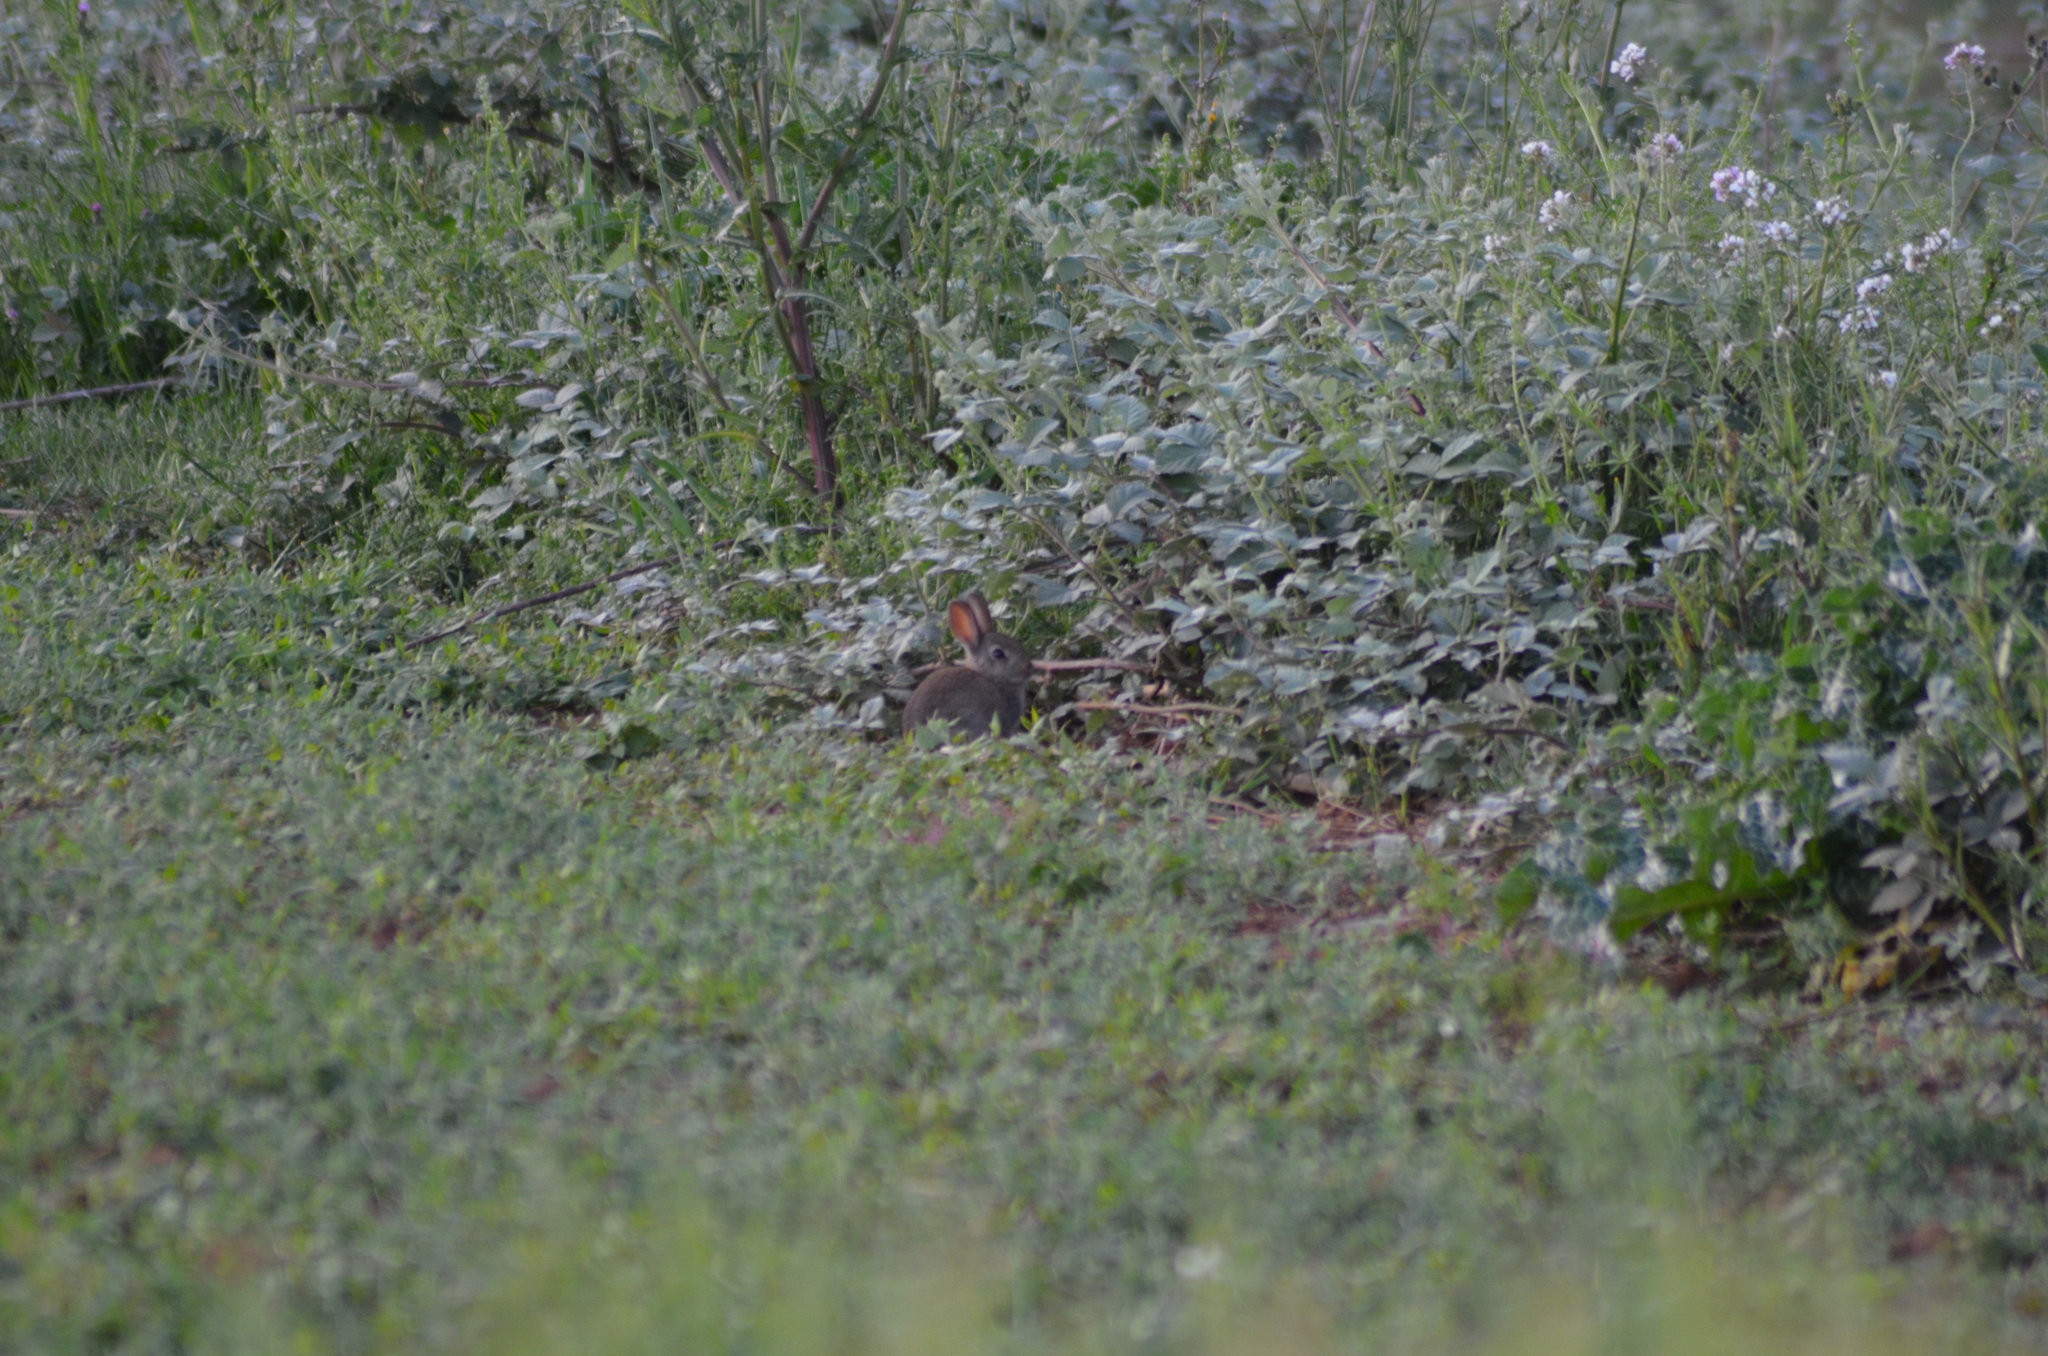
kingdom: Animalia
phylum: Chordata
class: Mammalia
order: Lagomorpha
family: Leporidae
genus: Oryctolagus
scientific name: Oryctolagus cuniculus
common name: European rabbit
